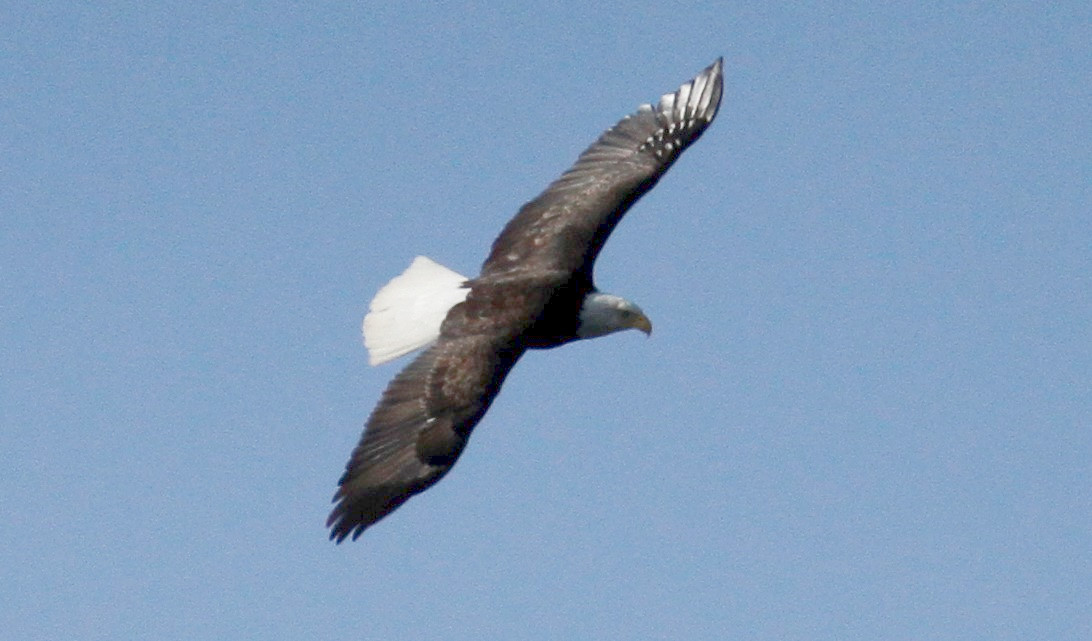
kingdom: Animalia
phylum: Chordata
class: Aves
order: Accipitriformes
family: Accipitridae
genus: Haliaeetus
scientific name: Haliaeetus leucocephalus
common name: Bald eagle
